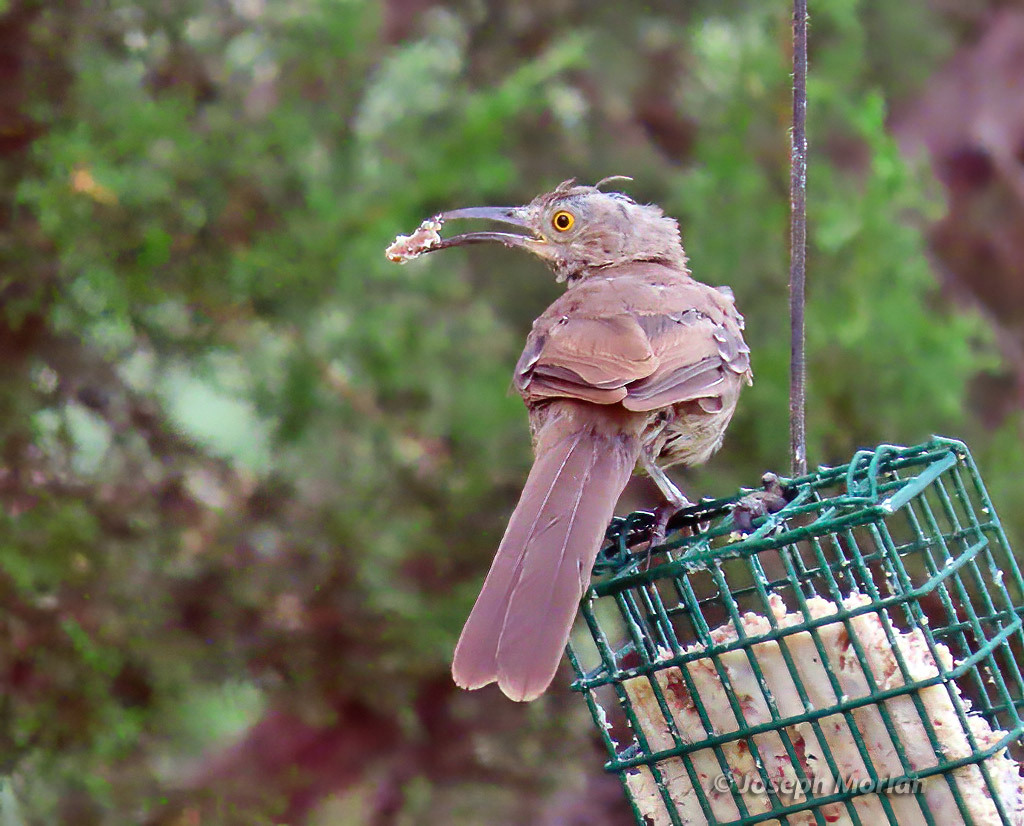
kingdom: Animalia
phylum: Chordata
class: Aves
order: Passeriformes
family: Mimidae
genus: Toxostoma
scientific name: Toxostoma curvirostre
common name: Curve-billed thrasher
